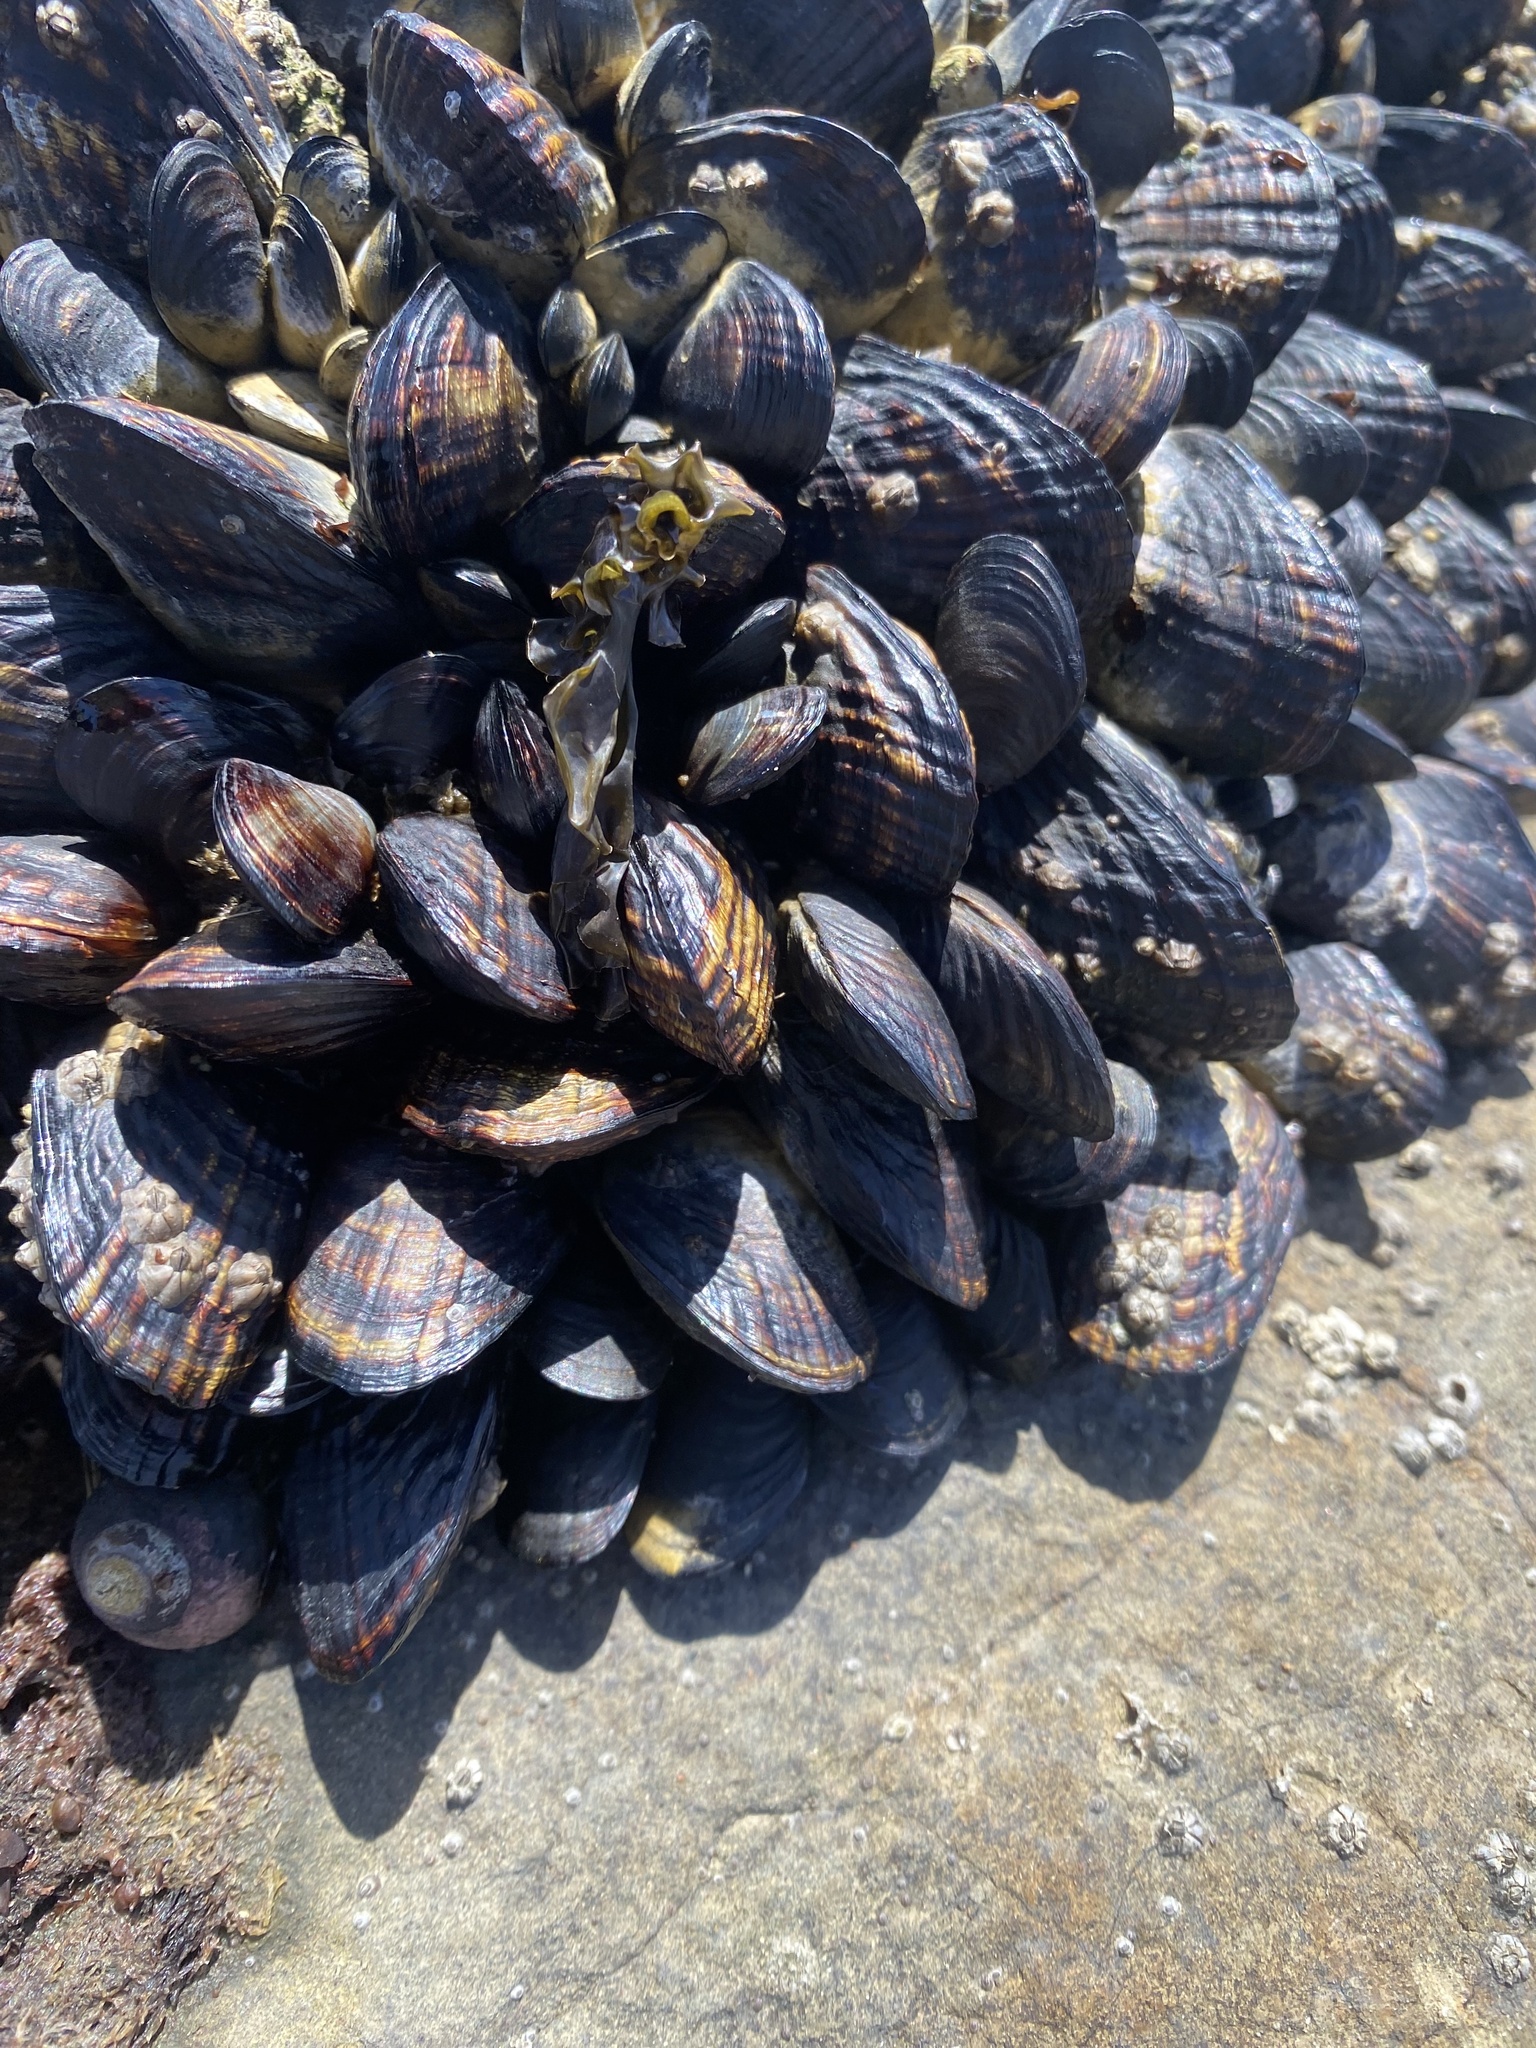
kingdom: Animalia
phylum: Mollusca
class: Bivalvia
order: Mytilida
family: Mytilidae
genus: Mytilus
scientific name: Mytilus californianus
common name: California mussel
